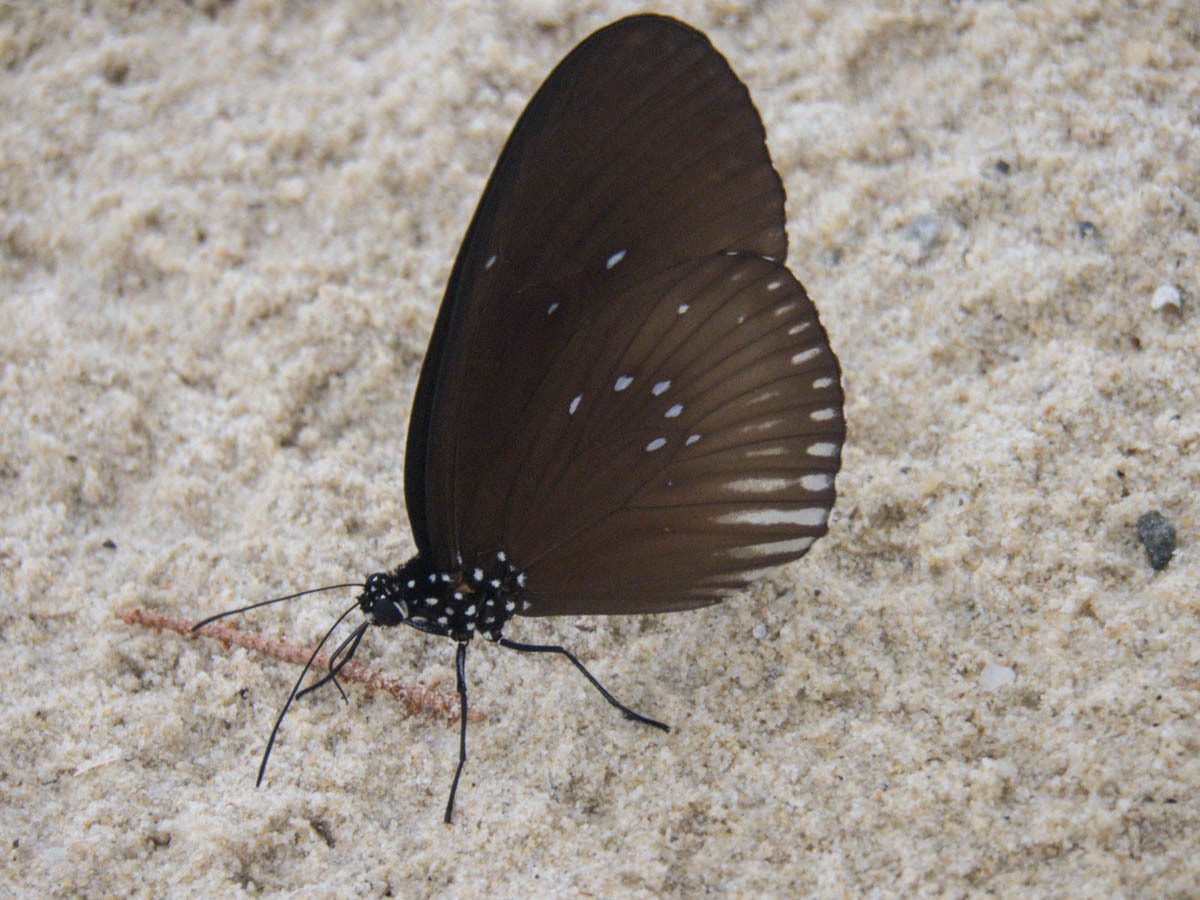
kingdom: Animalia
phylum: Arthropoda
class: Insecta
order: Lepidoptera
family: Nymphalidae
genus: Euploea
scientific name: Euploea eyndhovii
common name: Striped black crow butterfly
